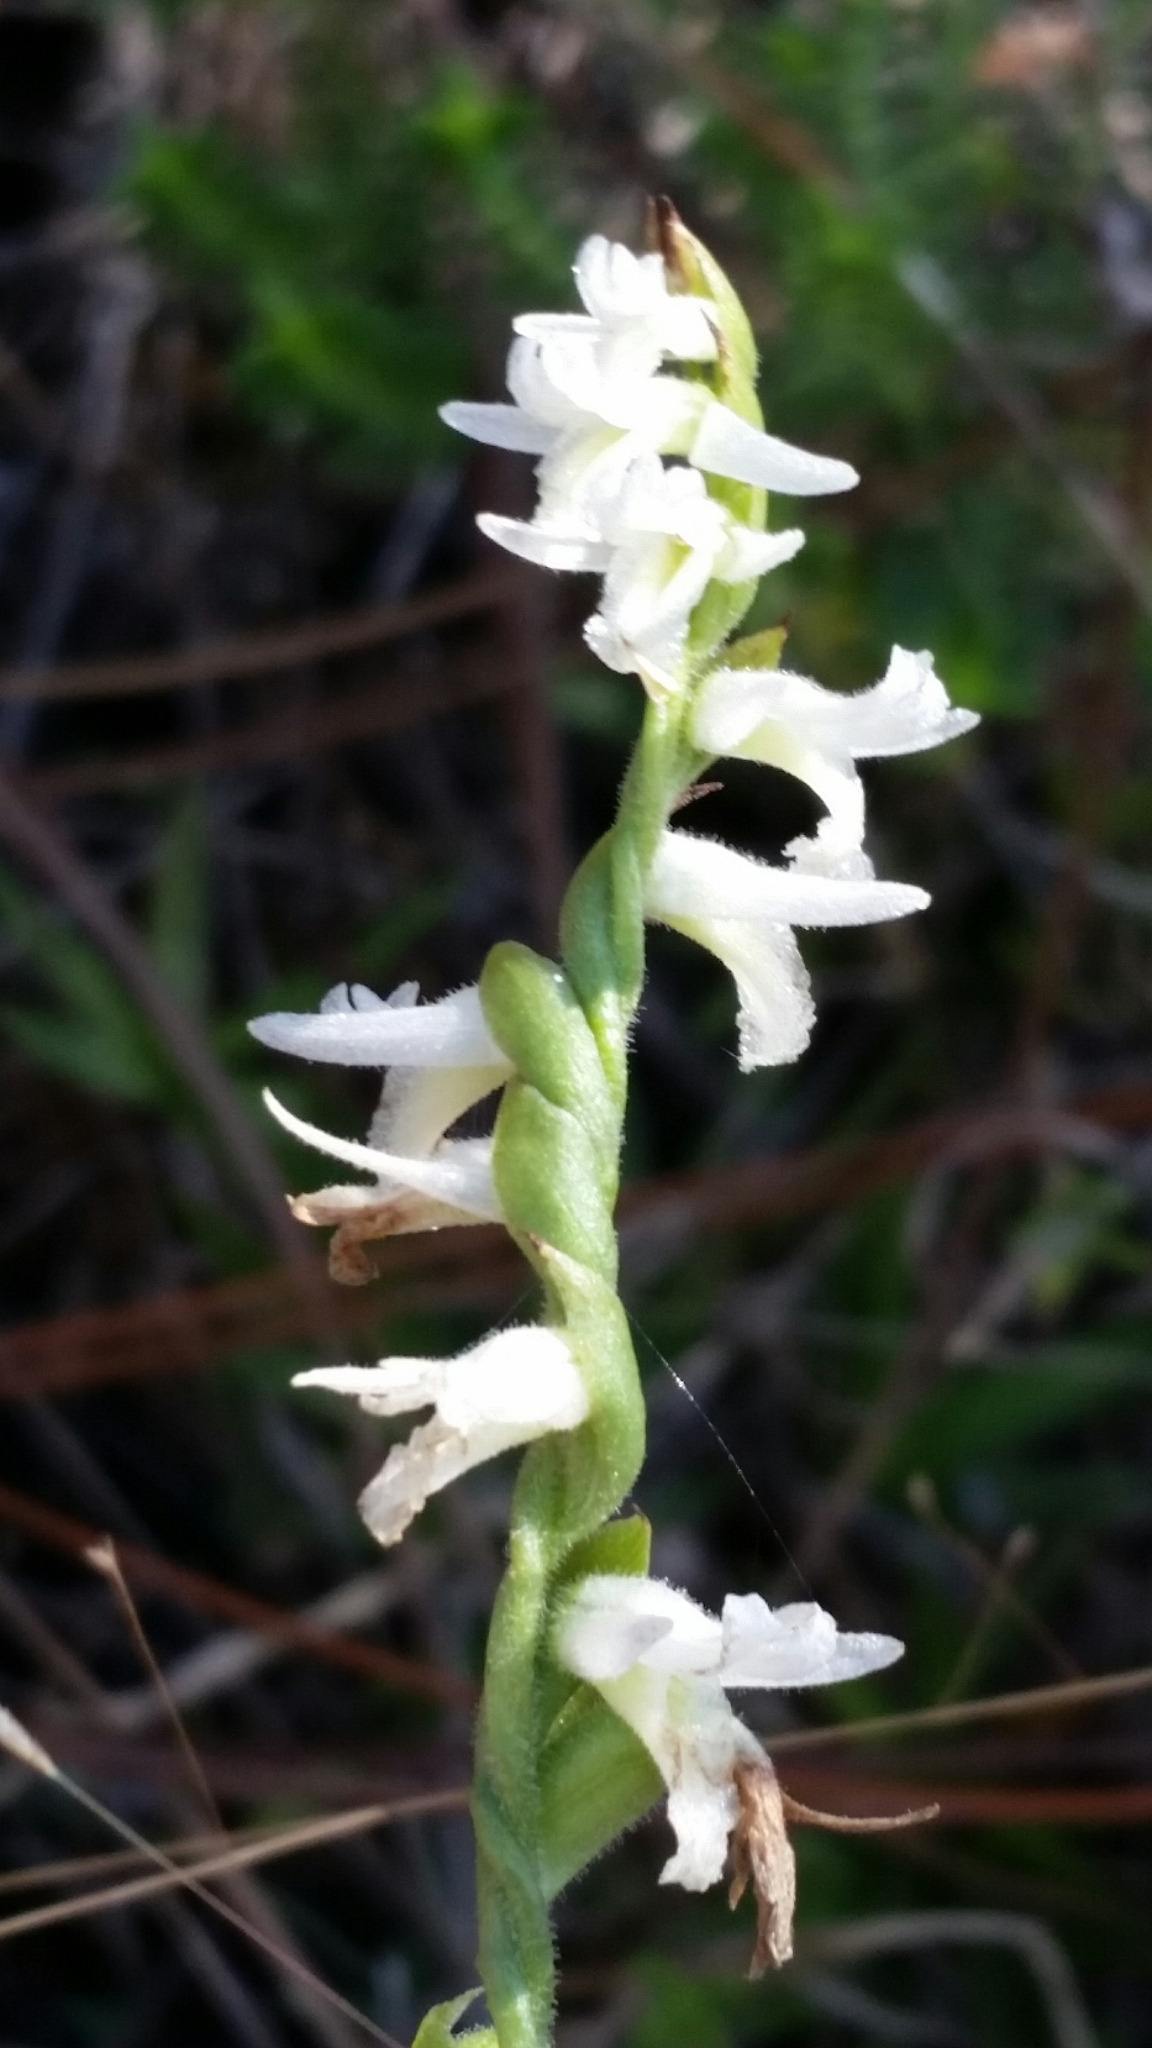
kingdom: Plantae
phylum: Tracheophyta
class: Liliopsida
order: Asparagales
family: Orchidaceae
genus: Spiranthes
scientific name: Spiranthes longilabris
